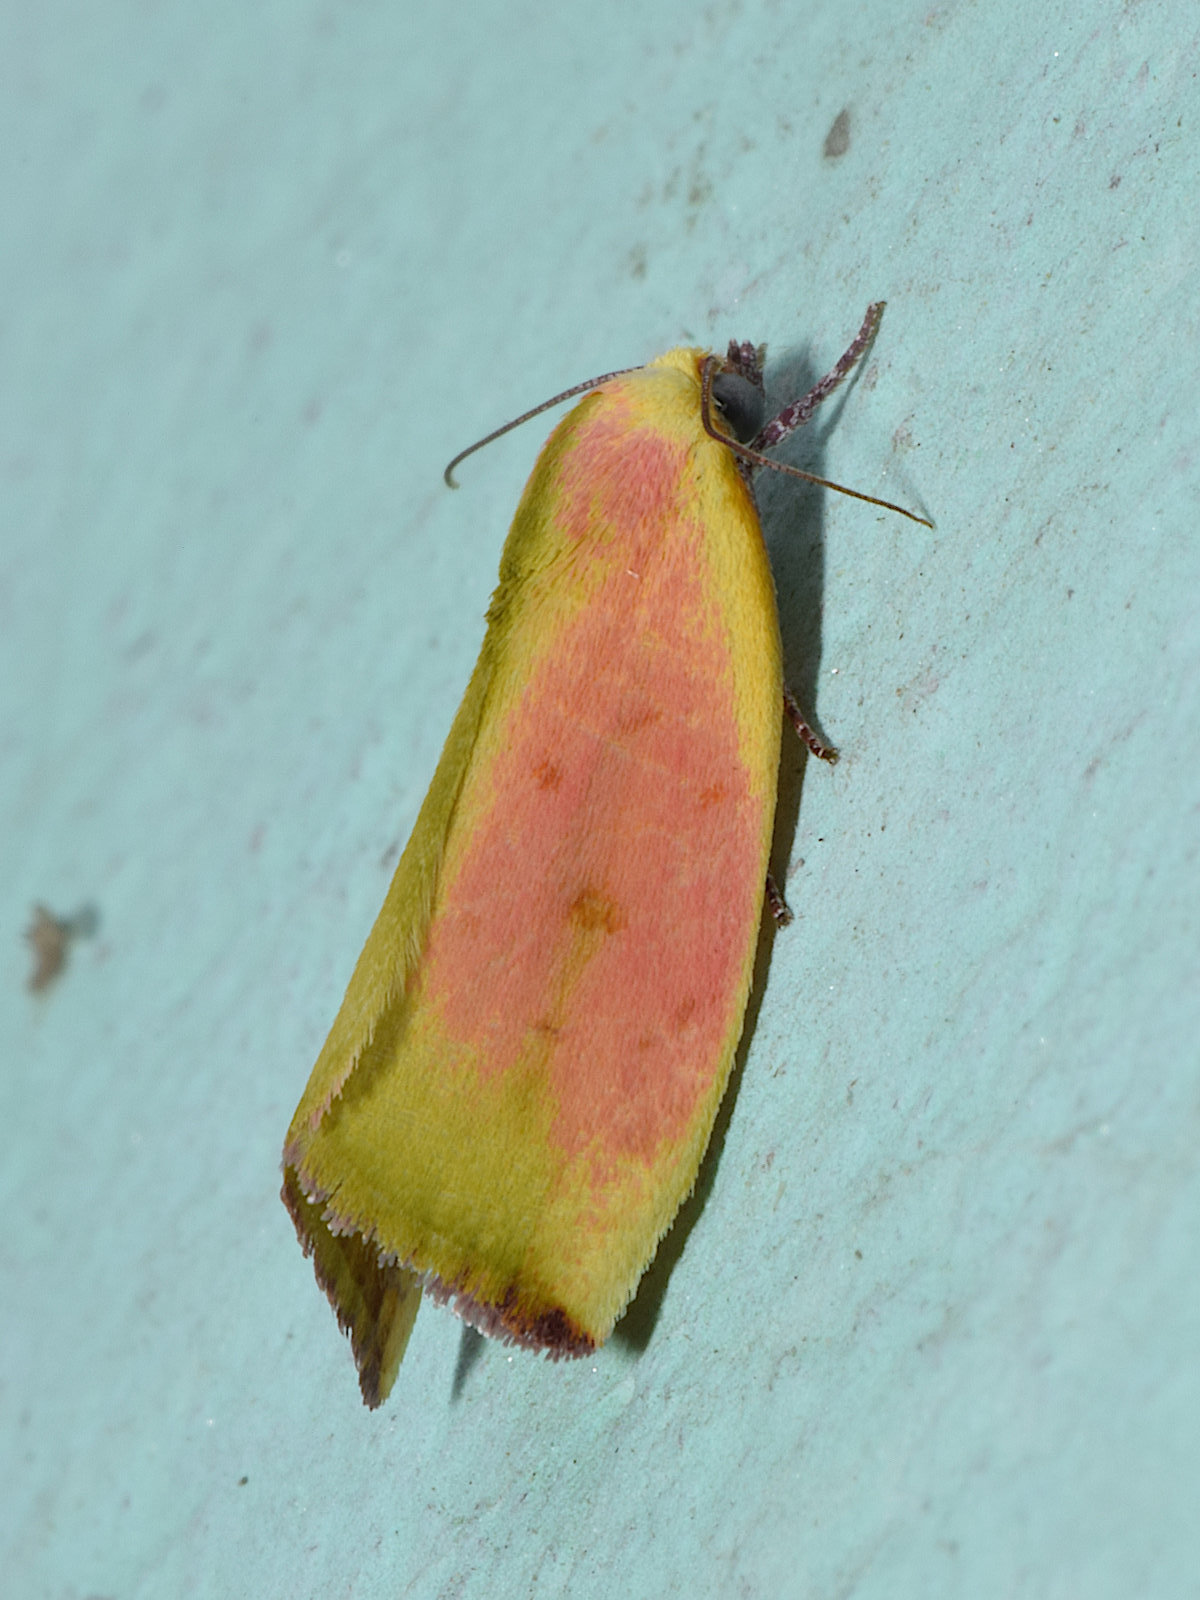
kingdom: Animalia
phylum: Arthropoda
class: Insecta
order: Lepidoptera
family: Nolidae
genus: Earias
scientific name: Earias roseifera
